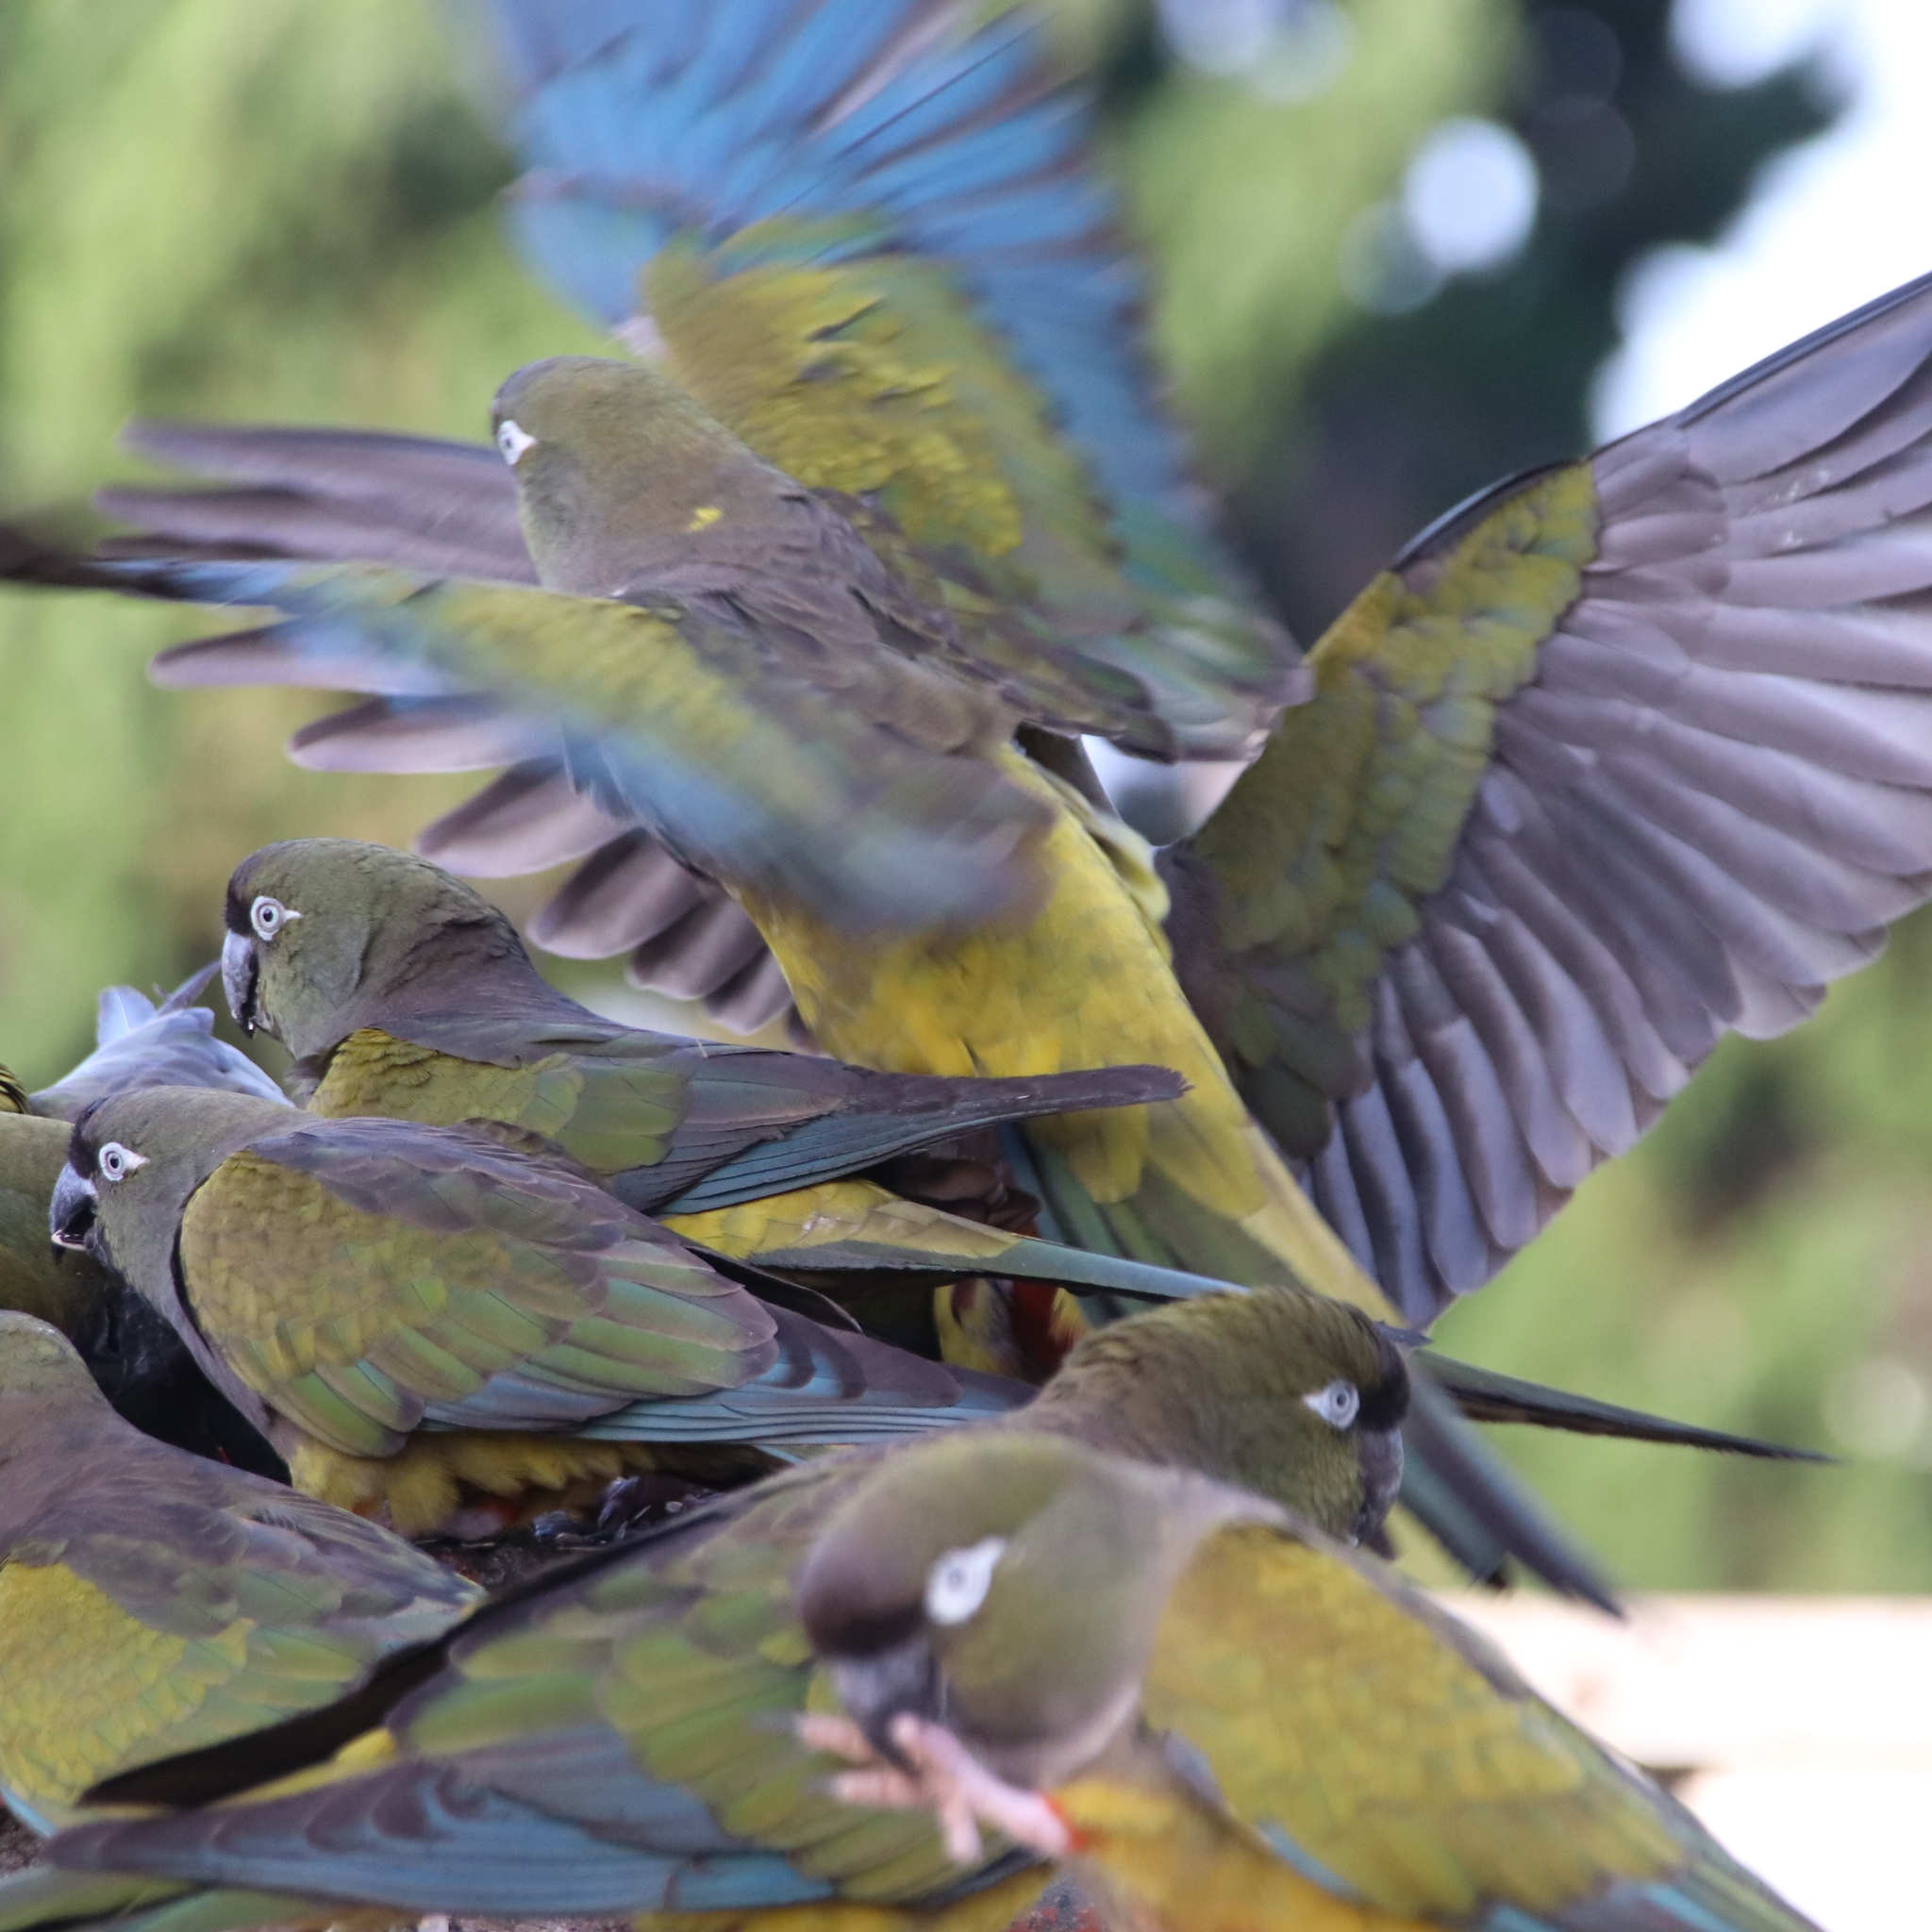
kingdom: Animalia
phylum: Chordata
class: Aves
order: Psittaciformes
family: Psittacidae
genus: Cyanoliseus
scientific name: Cyanoliseus patagonus
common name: Burrowing parrot
